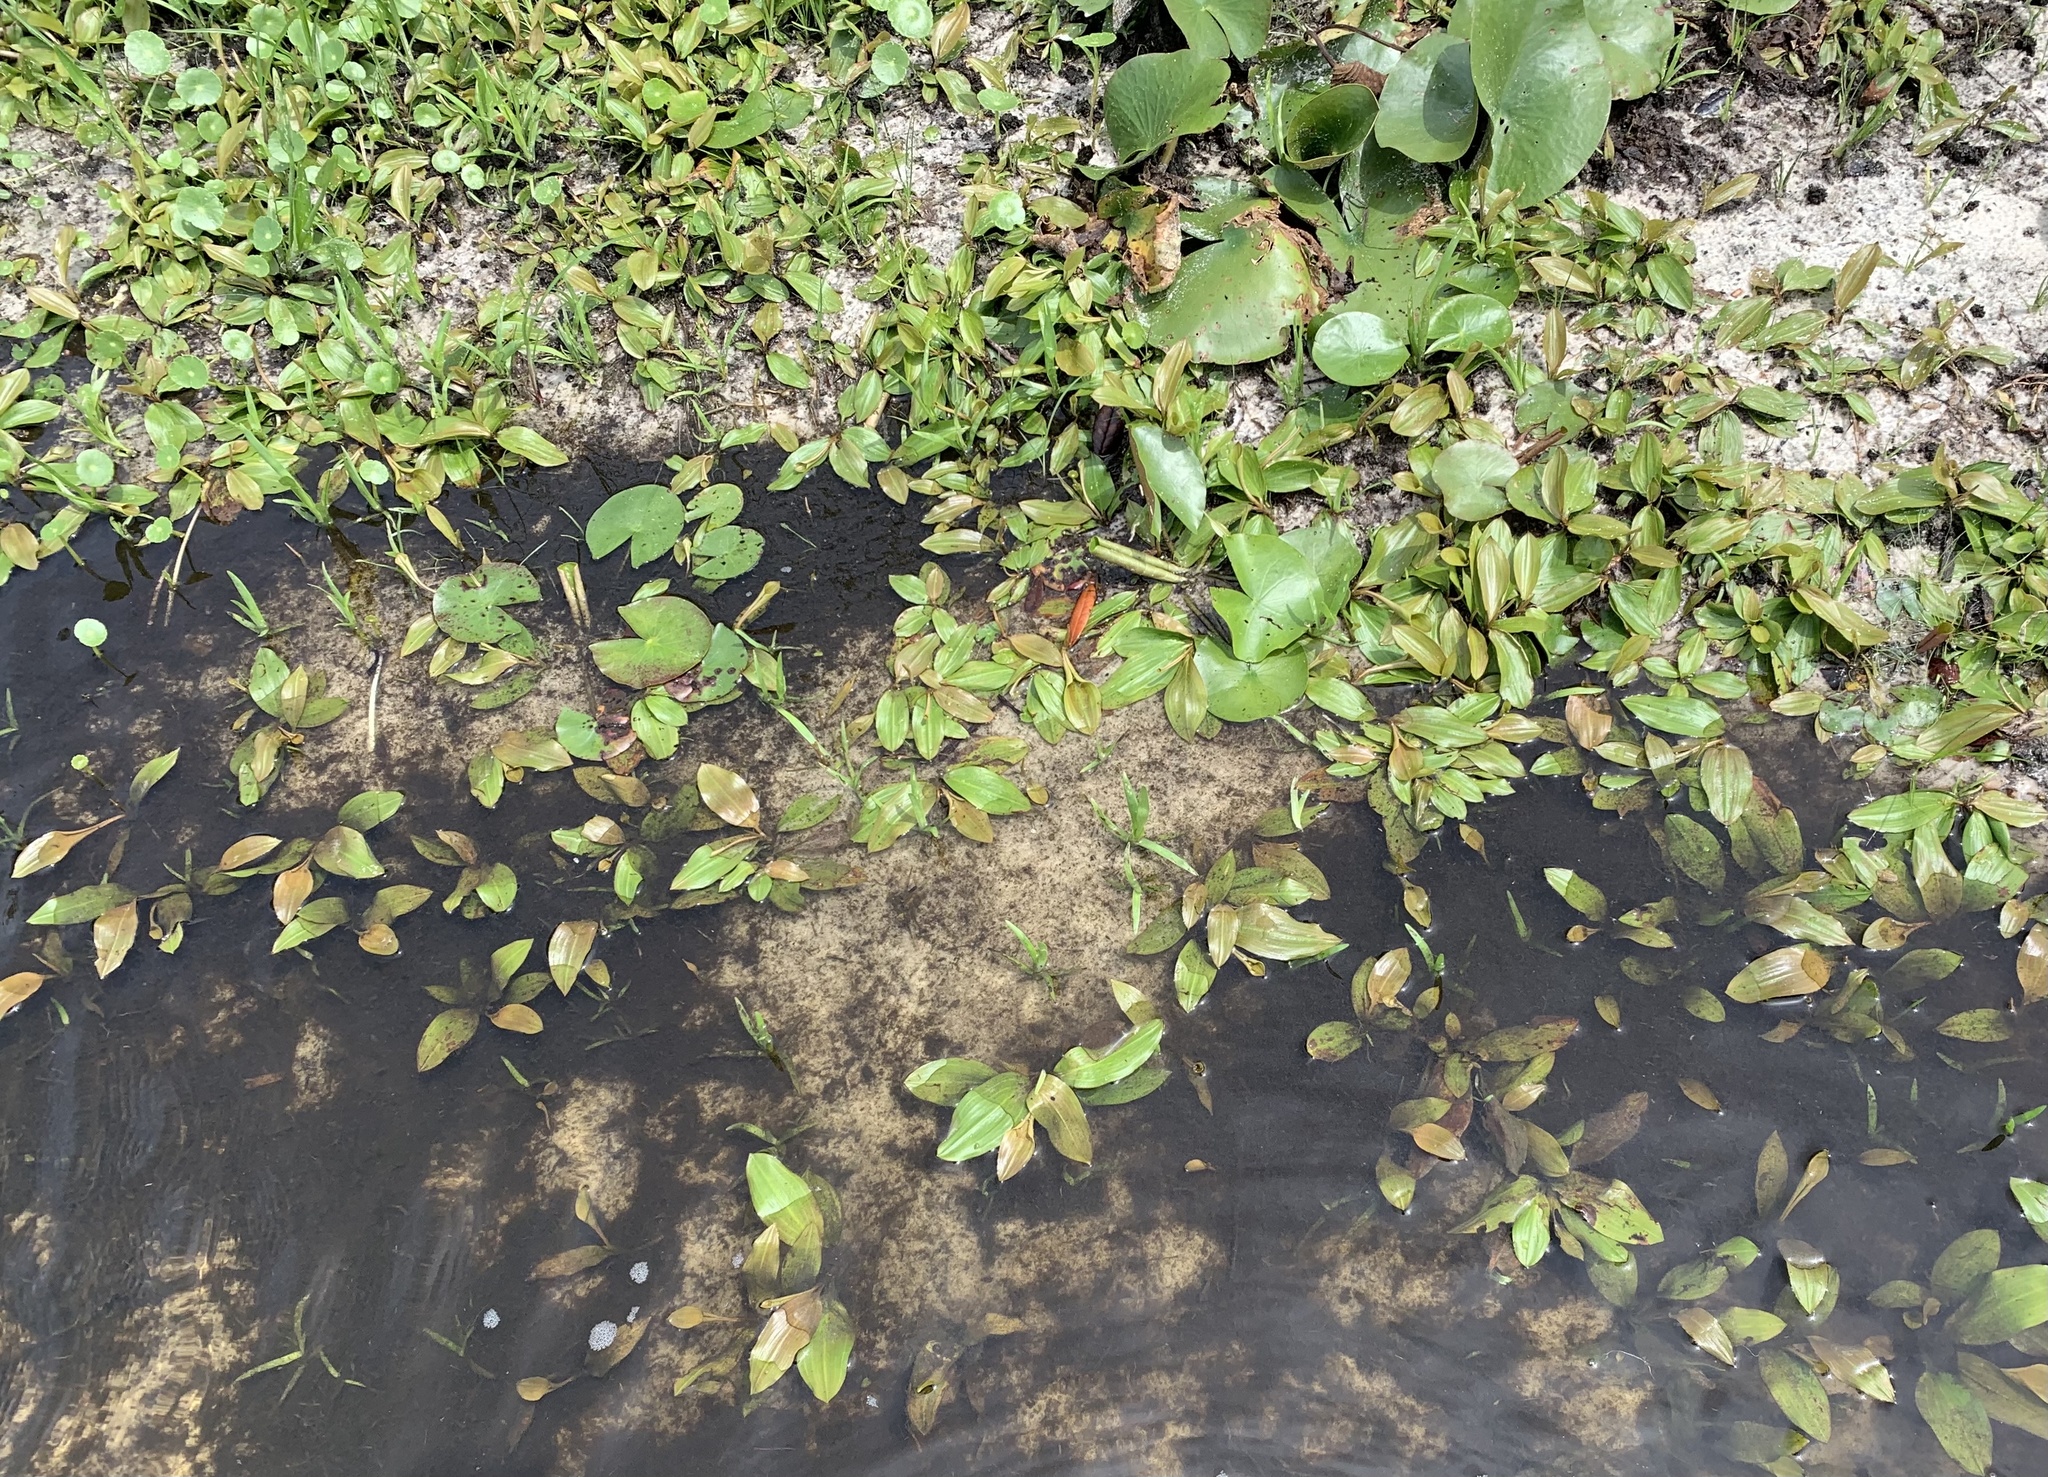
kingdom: Plantae
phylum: Tracheophyta
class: Liliopsida
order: Alismatales
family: Potamogetonaceae
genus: Potamogeton
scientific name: Potamogeton illinoensis
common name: Illinois pondweed
